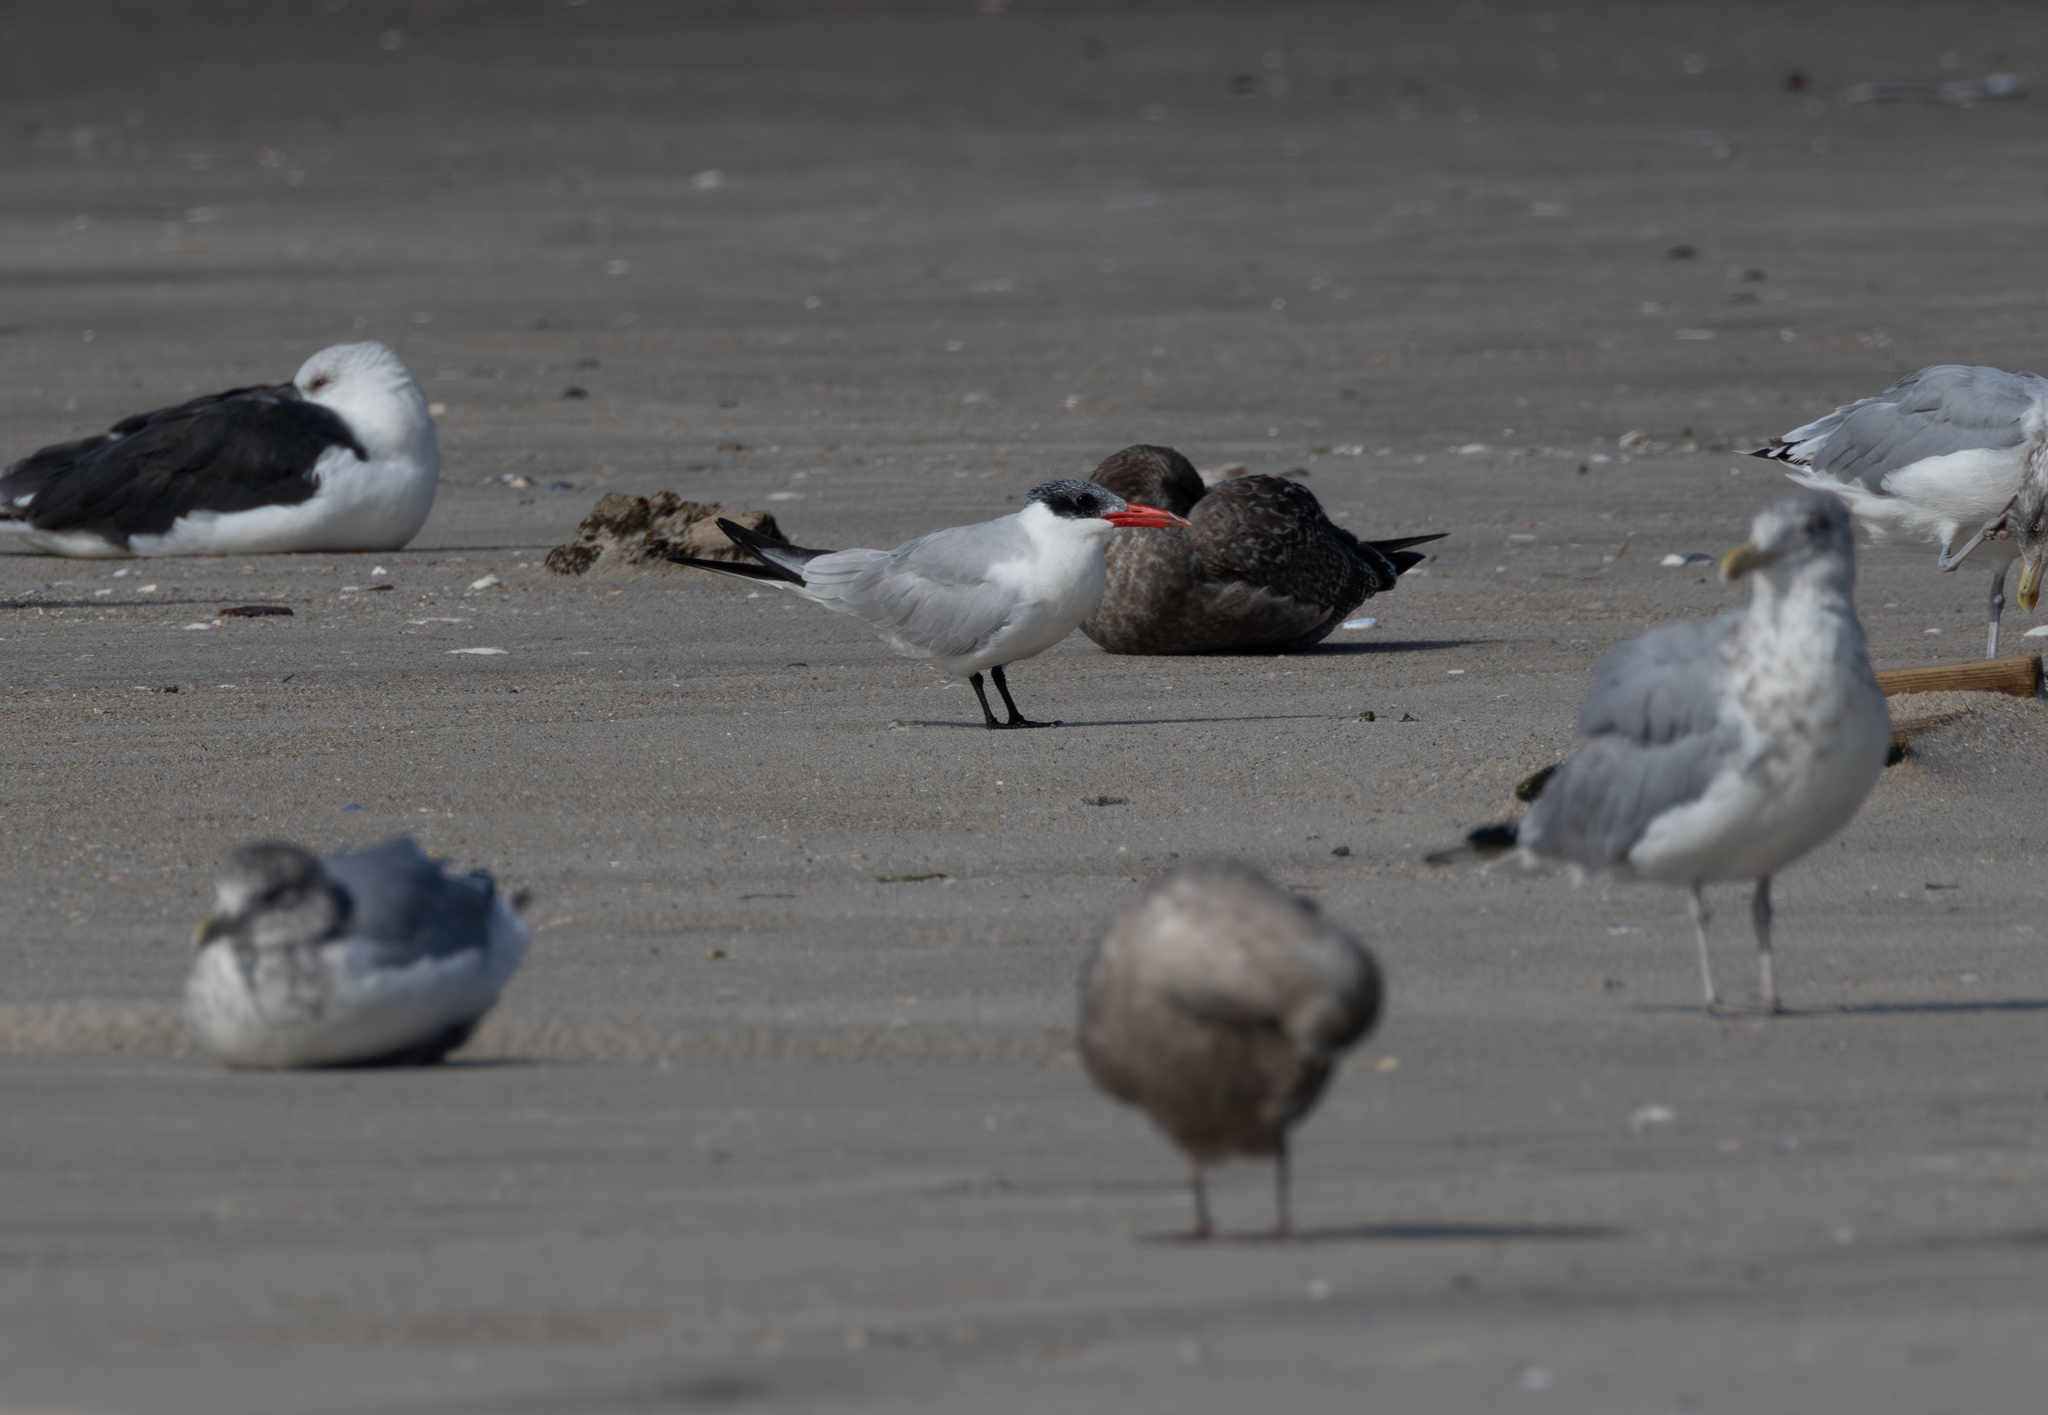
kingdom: Animalia
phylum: Chordata
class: Aves
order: Charadriiformes
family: Laridae
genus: Hydroprogne
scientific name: Hydroprogne caspia
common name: Caspian tern
